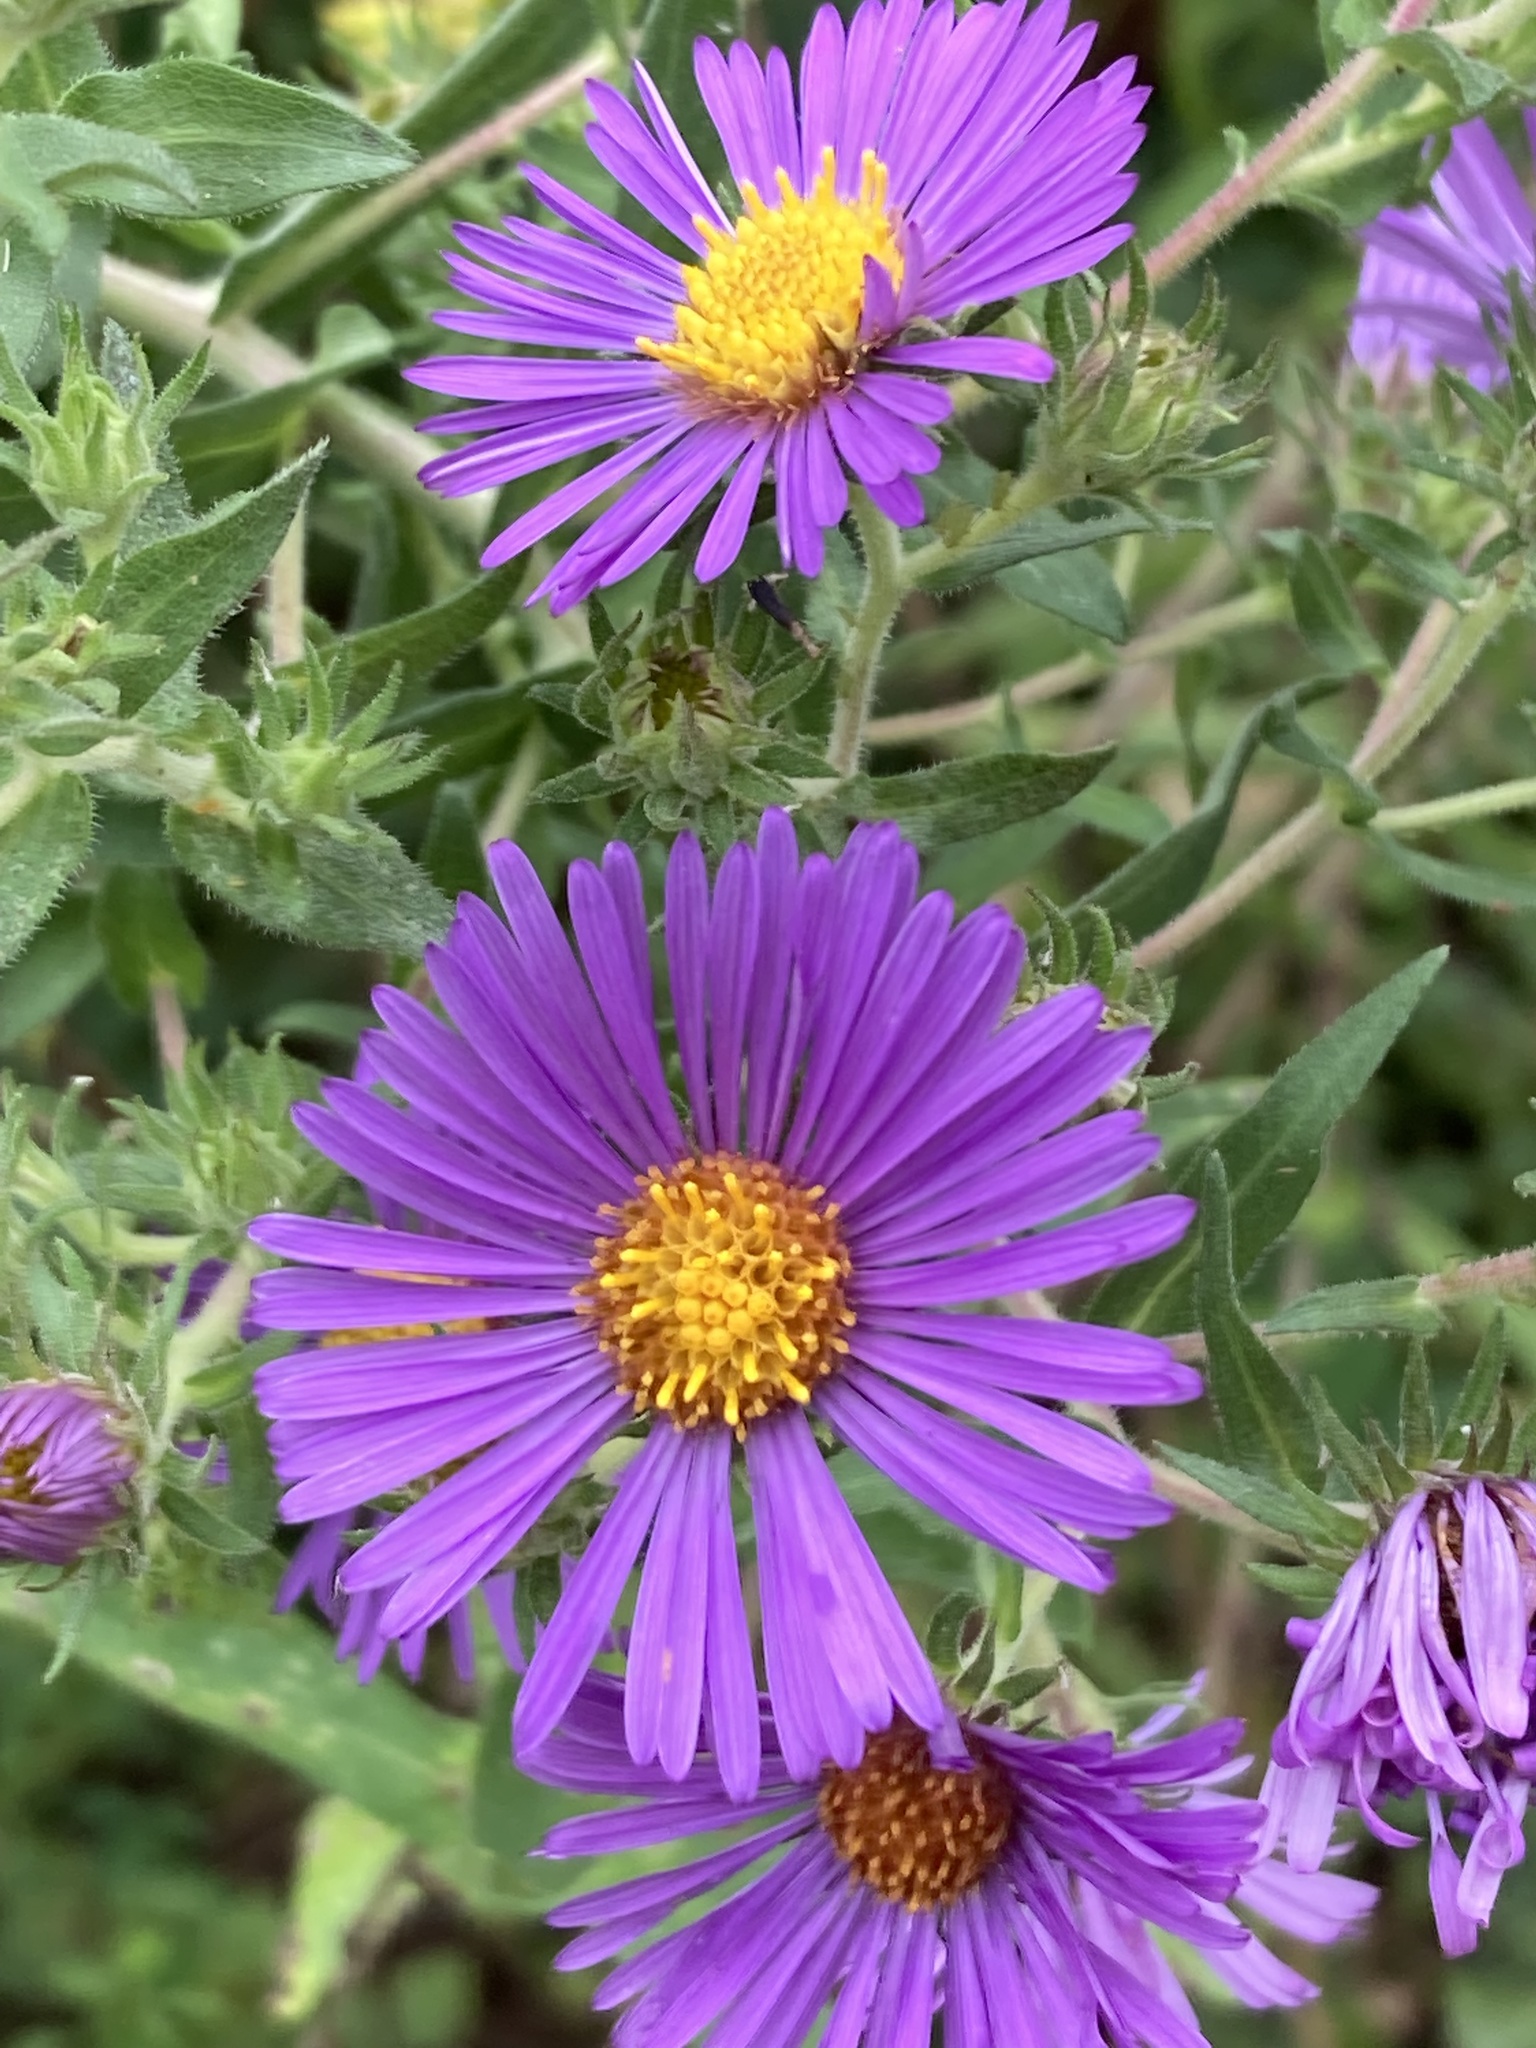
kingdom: Plantae
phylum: Tracheophyta
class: Magnoliopsida
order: Asterales
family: Asteraceae
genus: Symphyotrichum
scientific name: Symphyotrichum novae-angliae
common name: Michaelmas daisy
